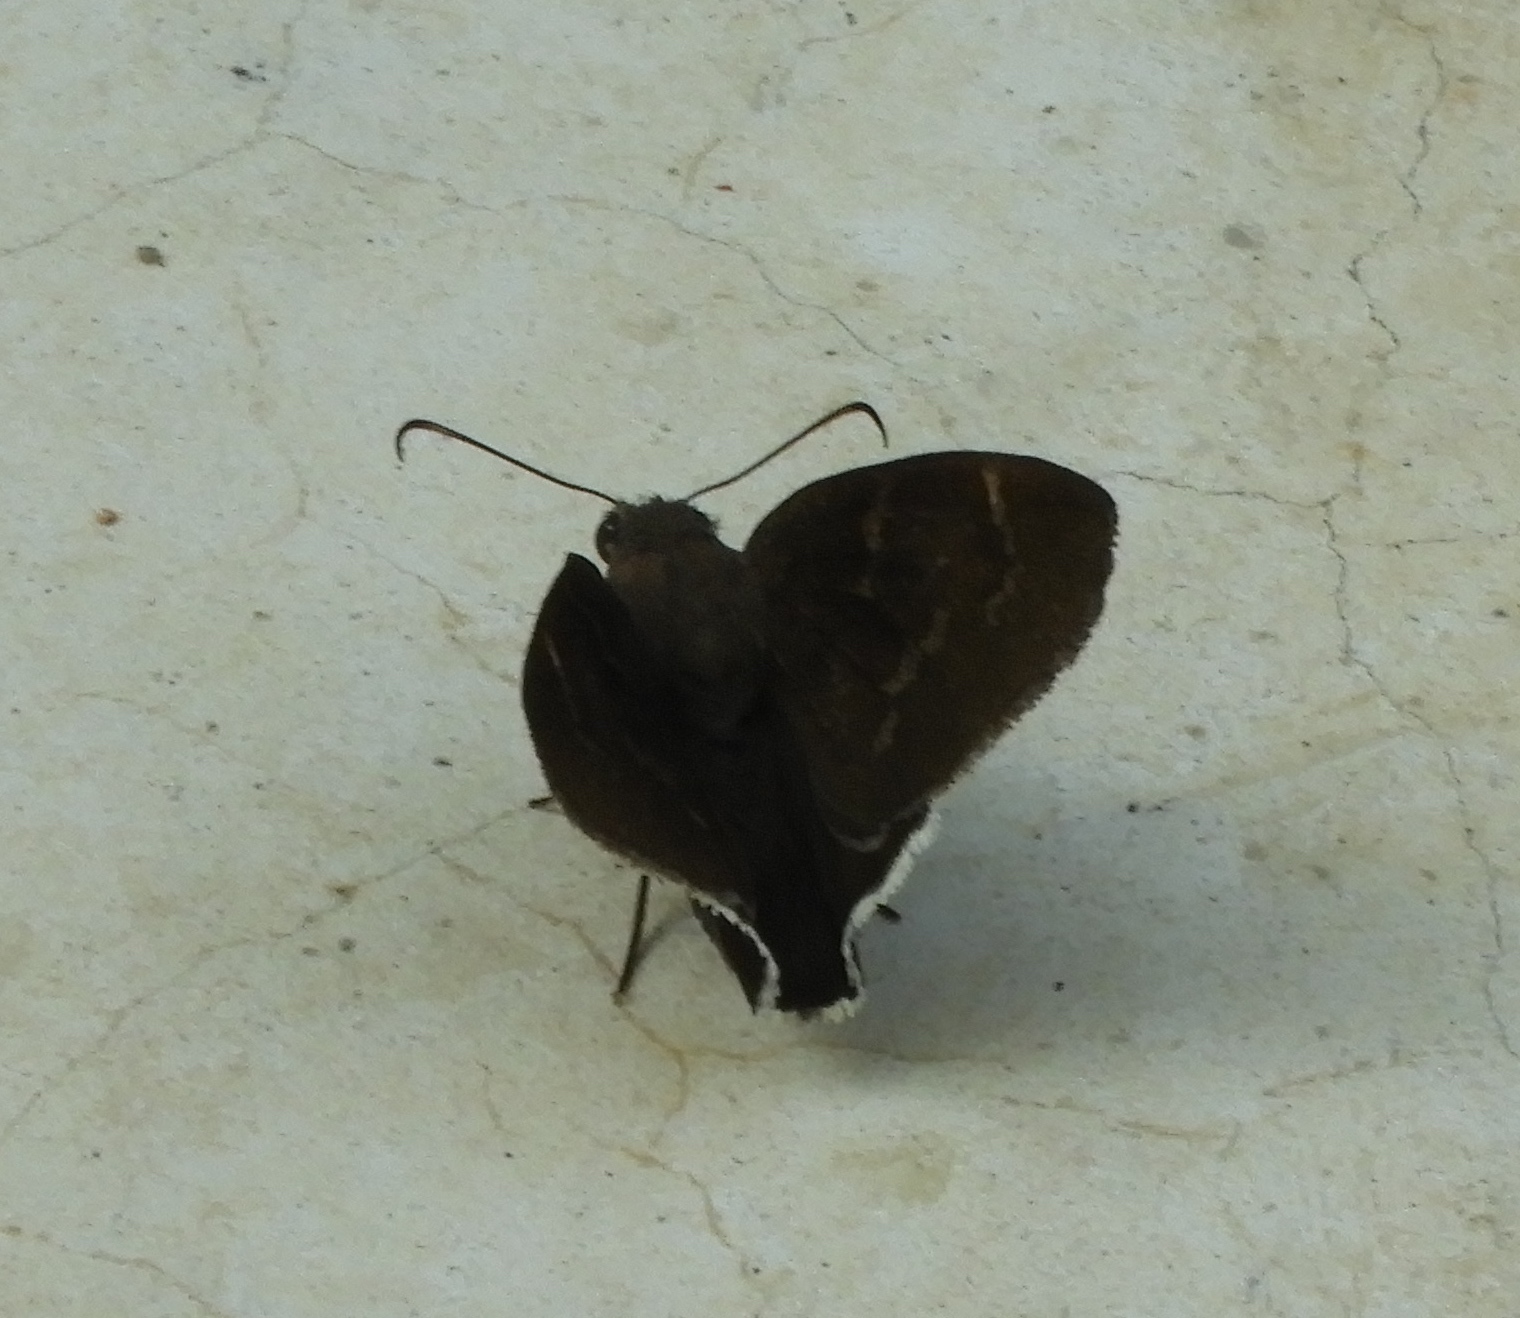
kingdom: Animalia
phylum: Arthropoda
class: Insecta
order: Lepidoptera
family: Hesperiidae
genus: Achalarus
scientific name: Achalarus Murgaria jalapus
